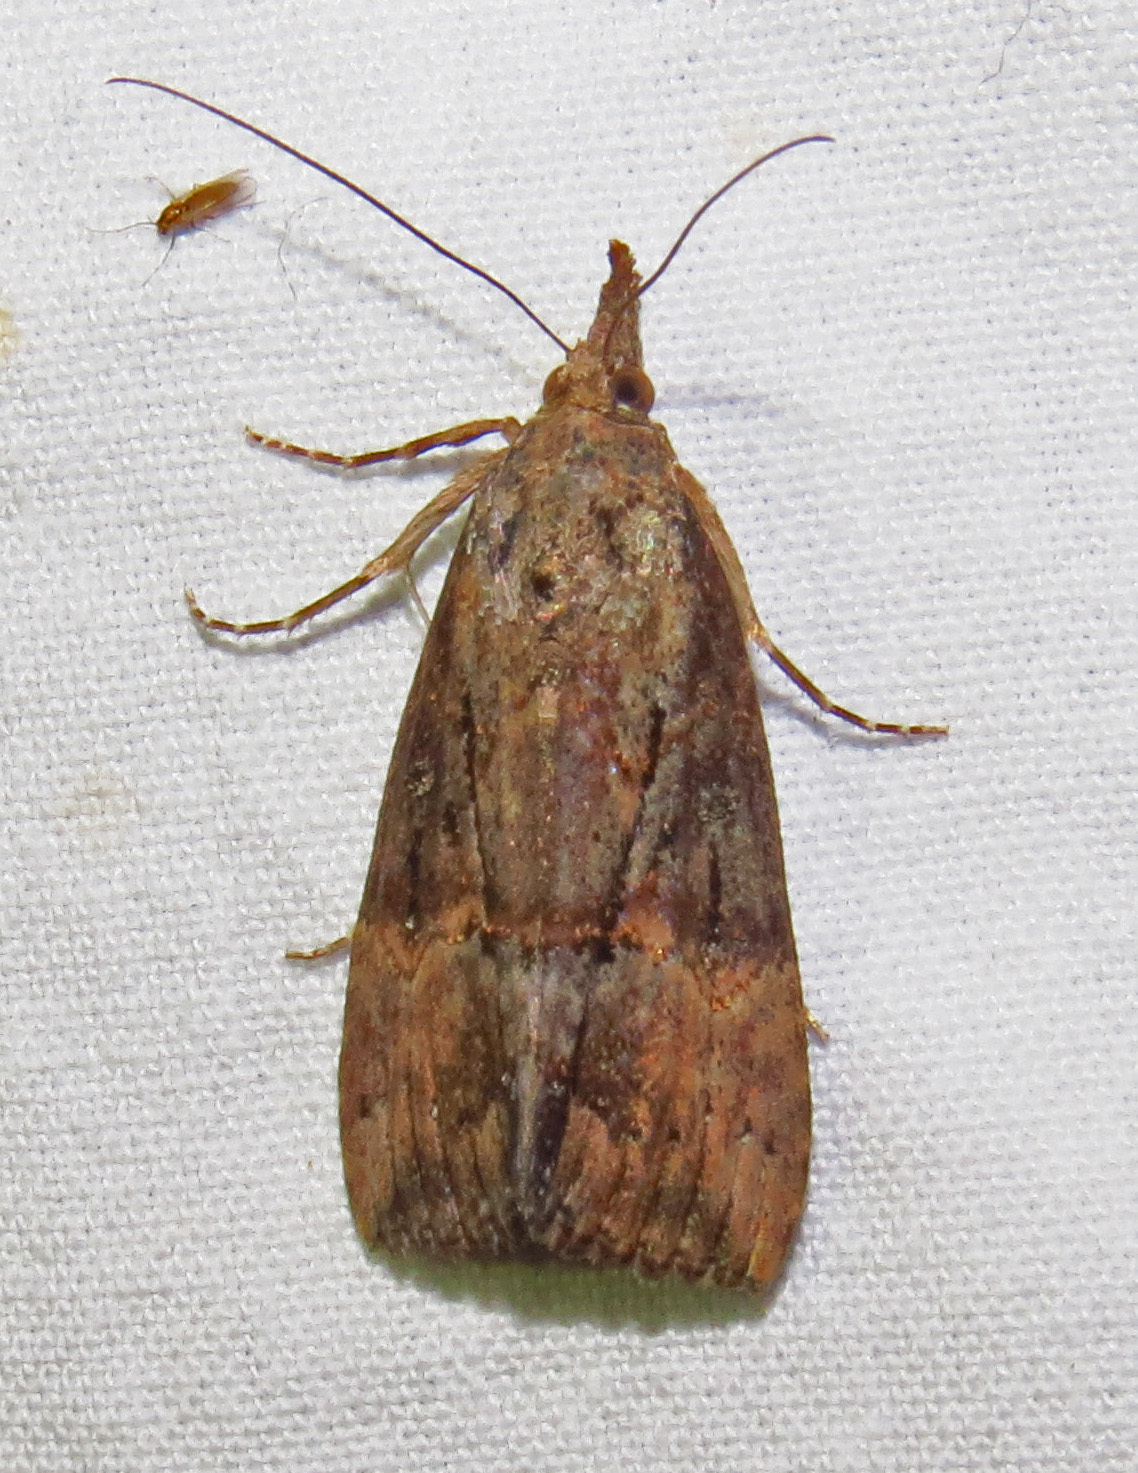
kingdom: Animalia
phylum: Arthropoda
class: Insecta
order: Lepidoptera
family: Erebidae
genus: Hypena
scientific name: Hypena scabra
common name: Green cloverworm
